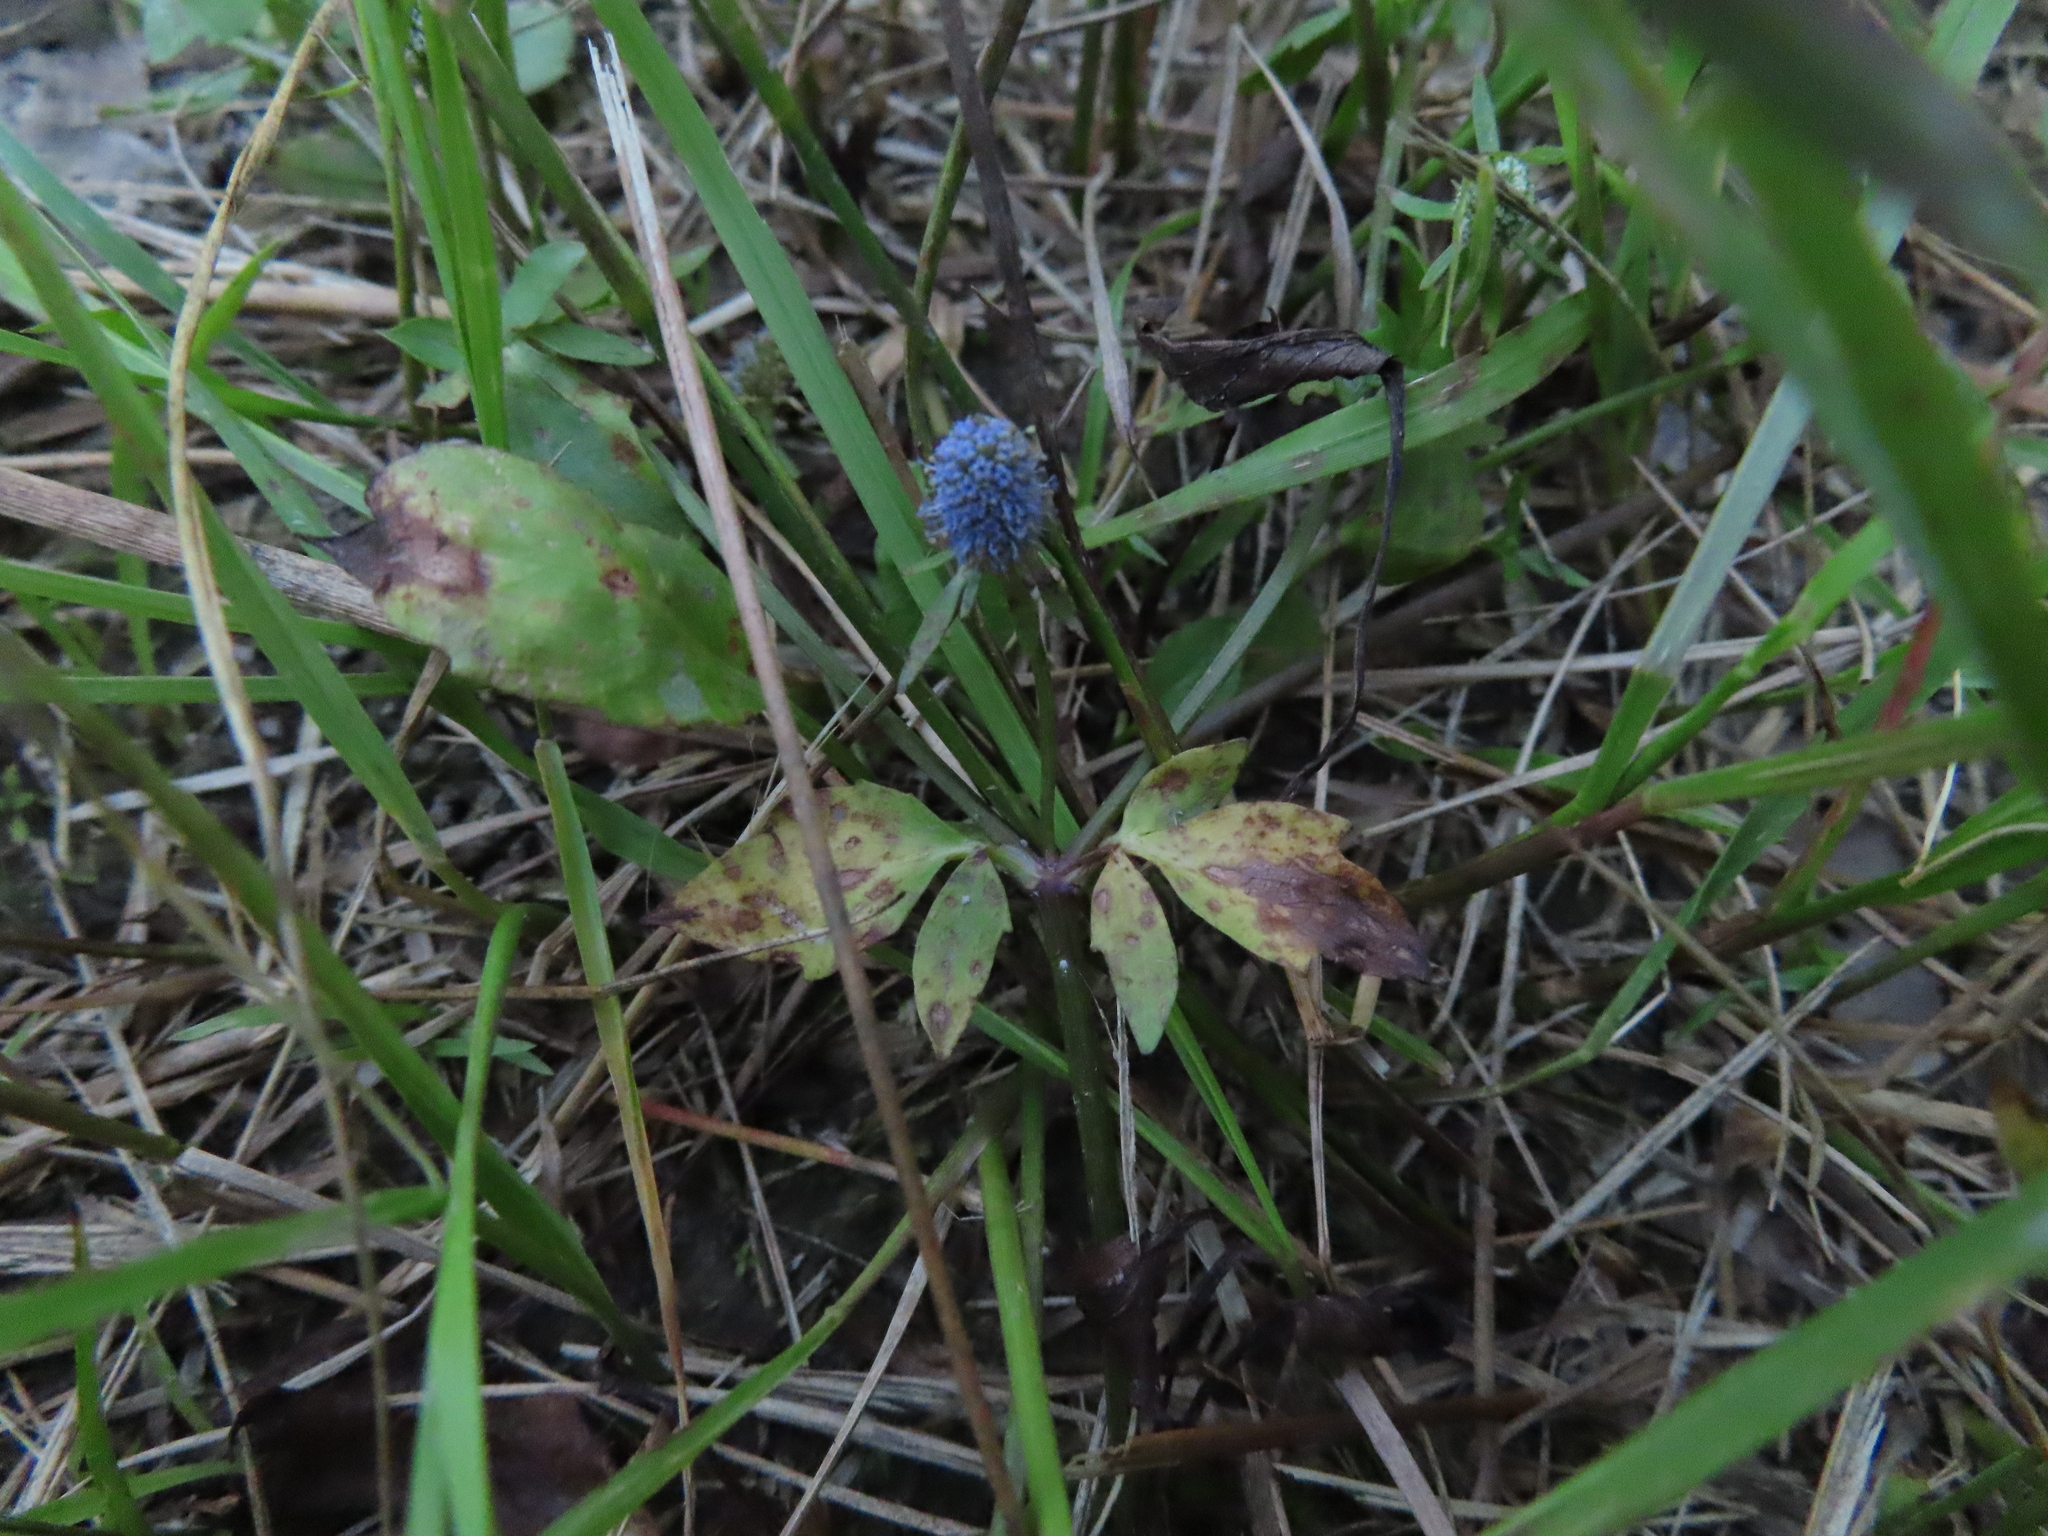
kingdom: Plantae
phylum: Tracheophyta
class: Magnoliopsida
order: Apiales
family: Apiaceae
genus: Eryngium
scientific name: Eryngium prostratum
